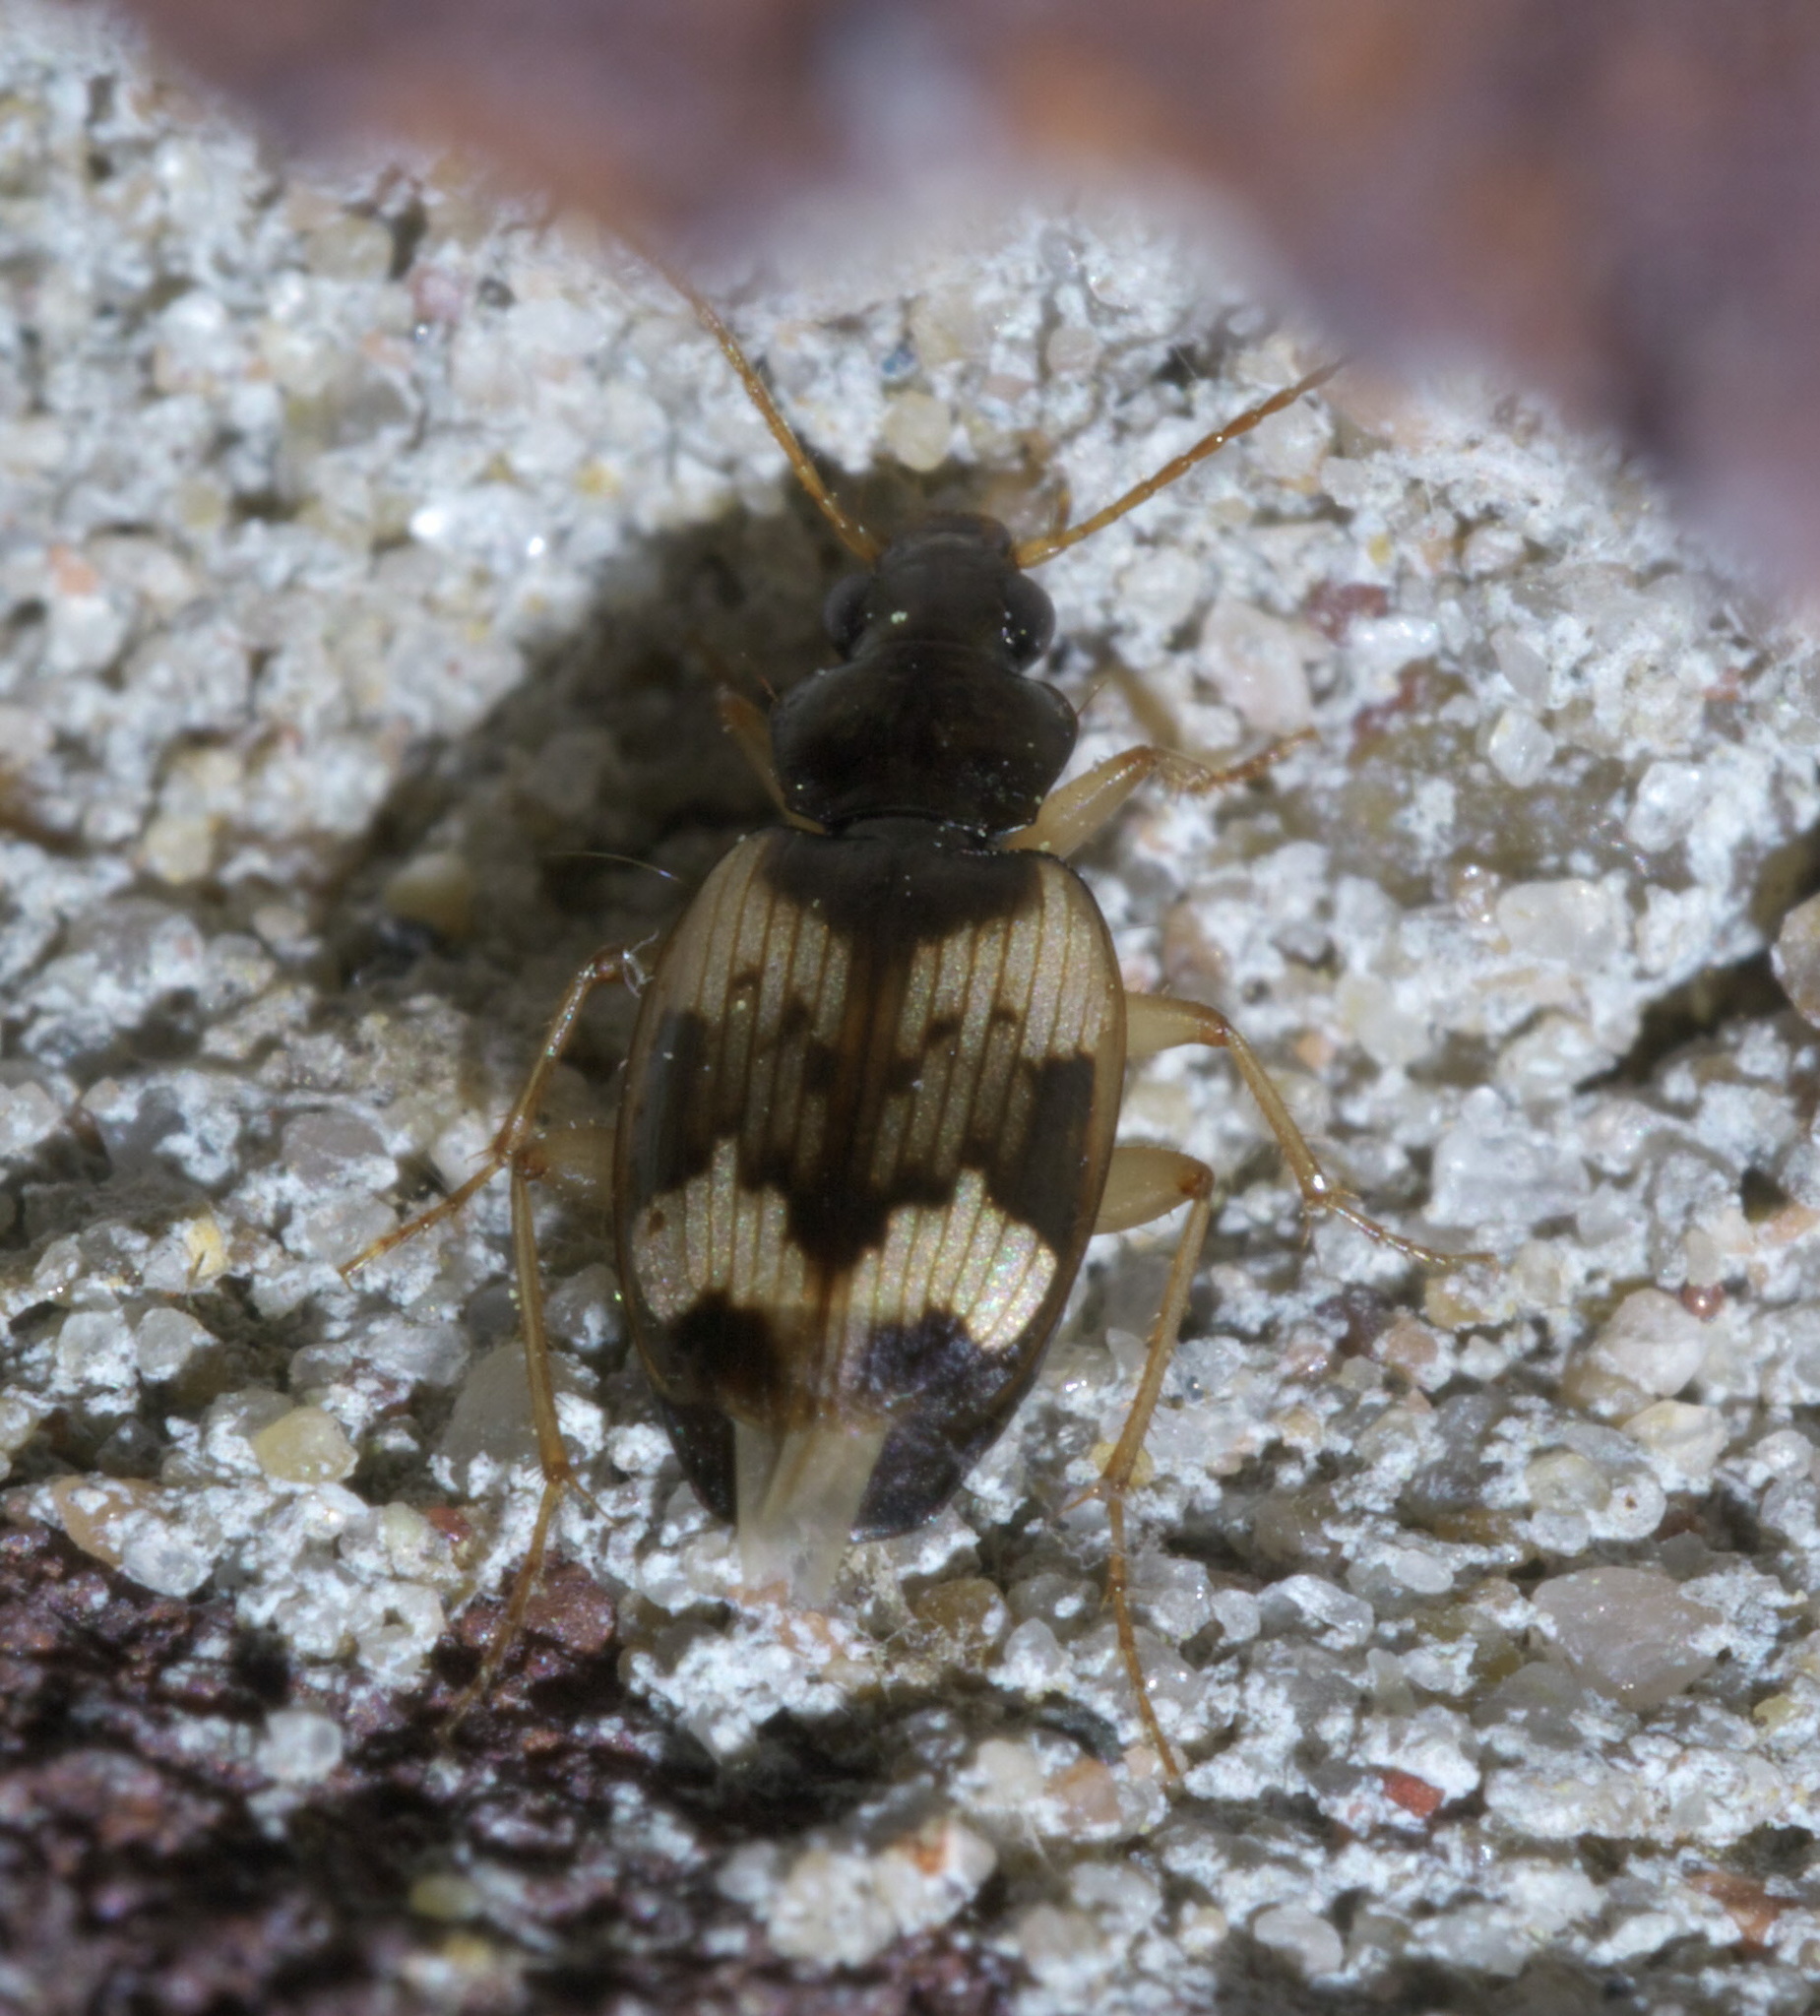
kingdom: Animalia
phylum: Arthropoda
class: Insecta
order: Coleoptera
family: Carabidae
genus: Tetragonoderus
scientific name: Tetragonoderus fasciatus
